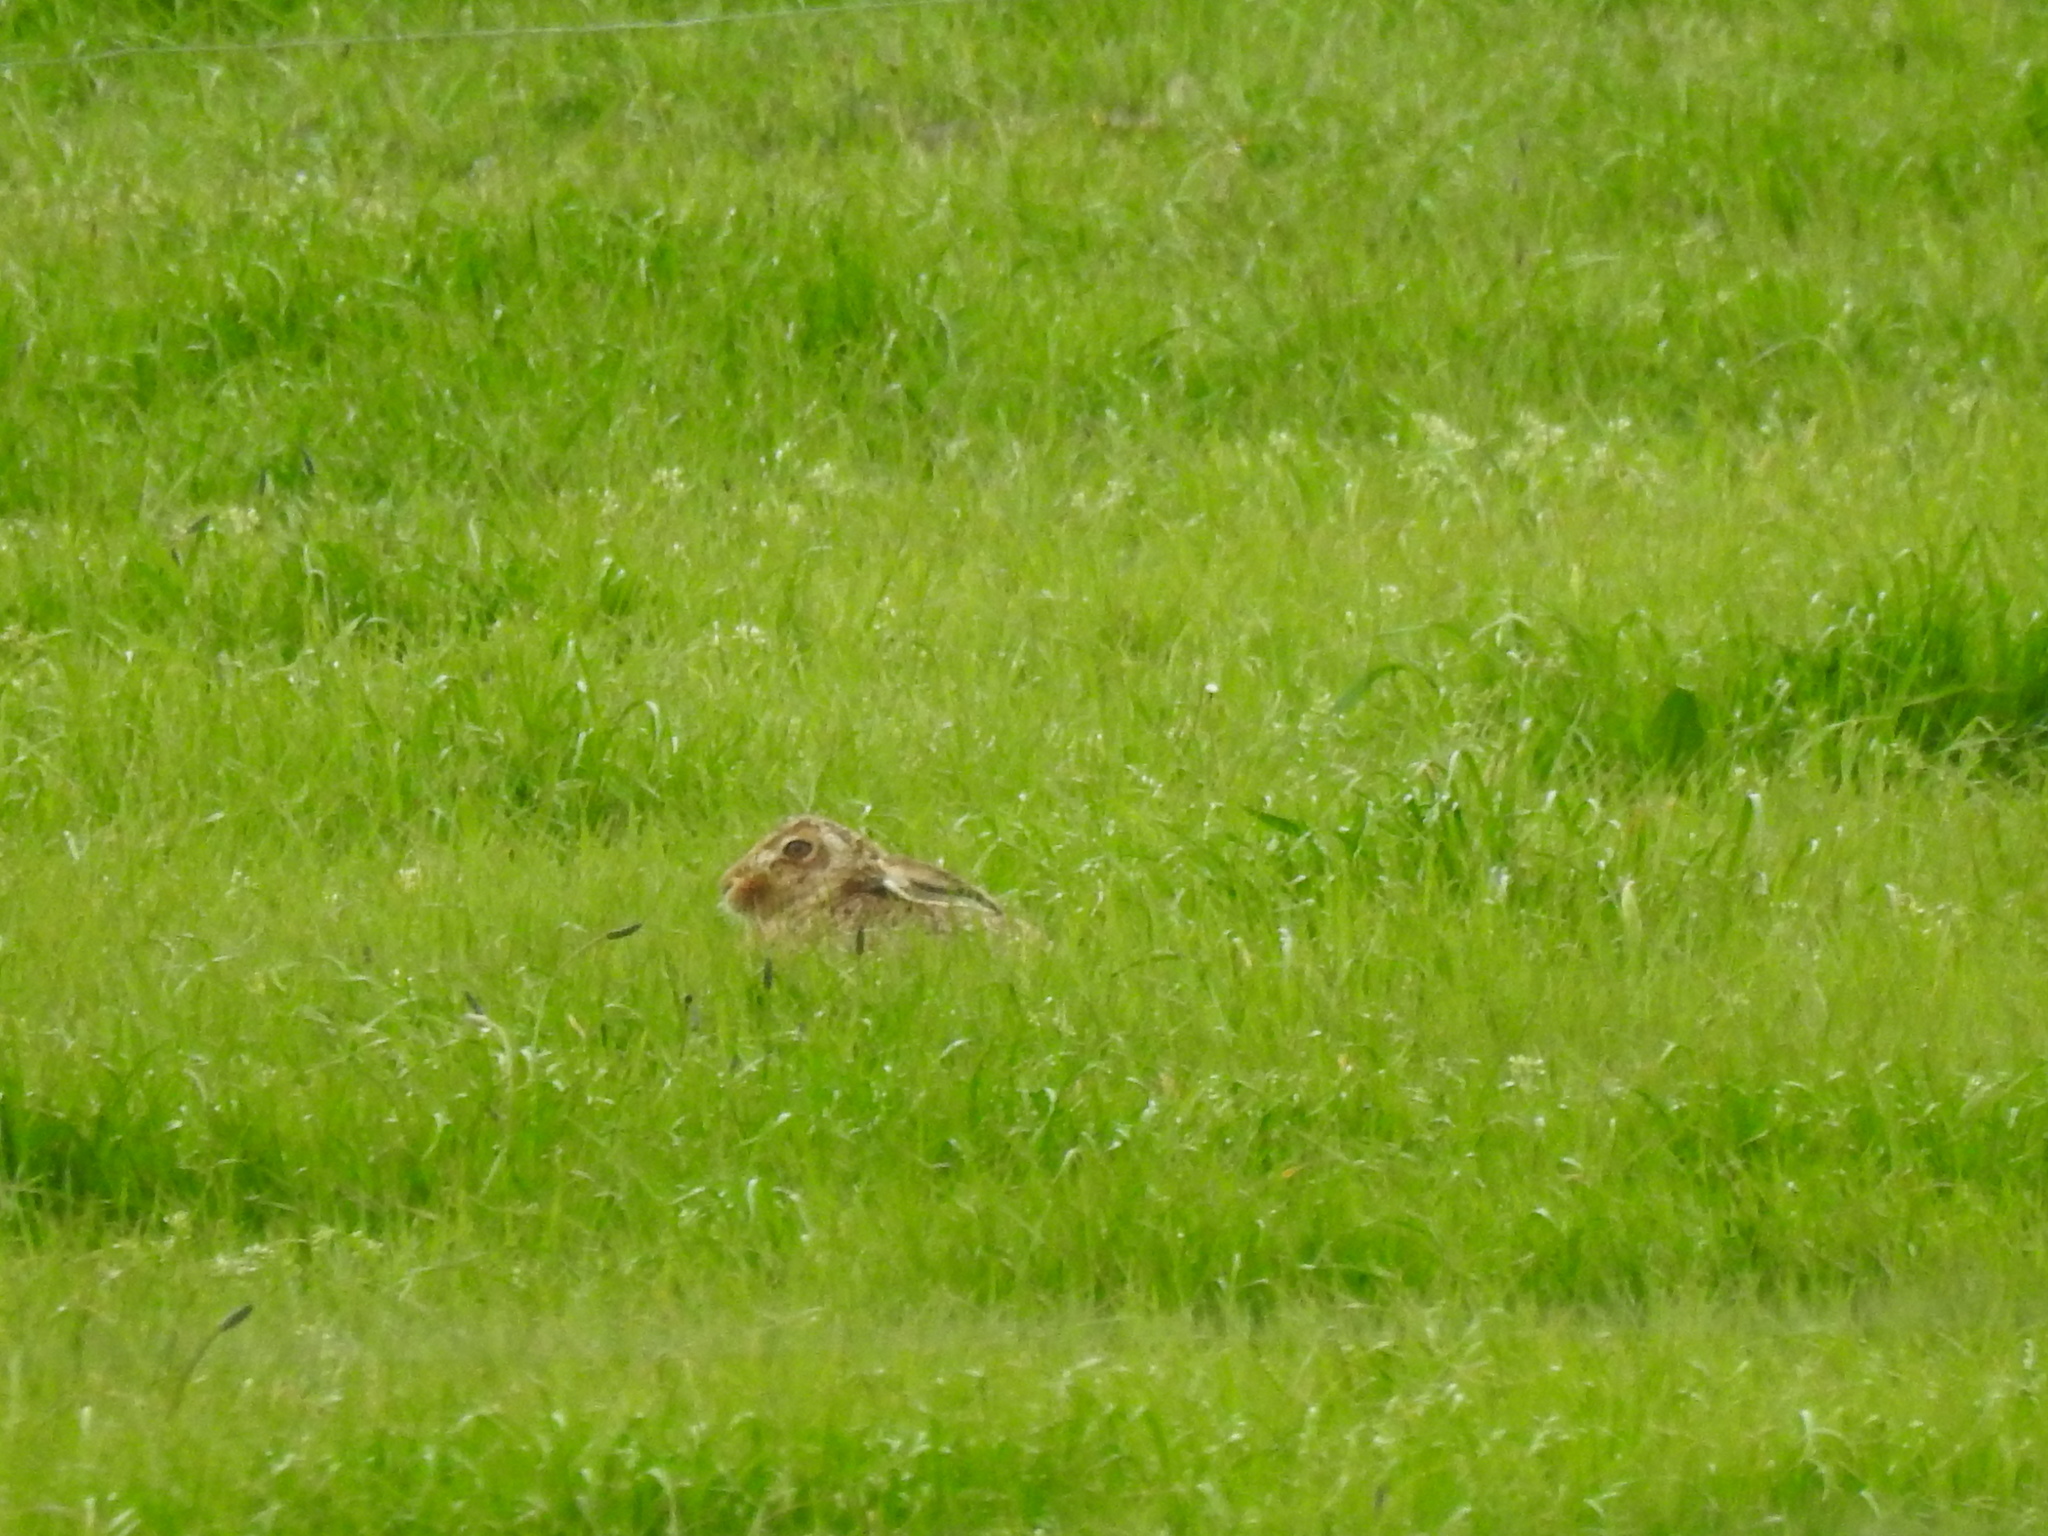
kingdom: Animalia
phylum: Chordata
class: Mammalia
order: Lagomorpha
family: Leporidae
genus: Lepus
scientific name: Lepus europaeus
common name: European hare
